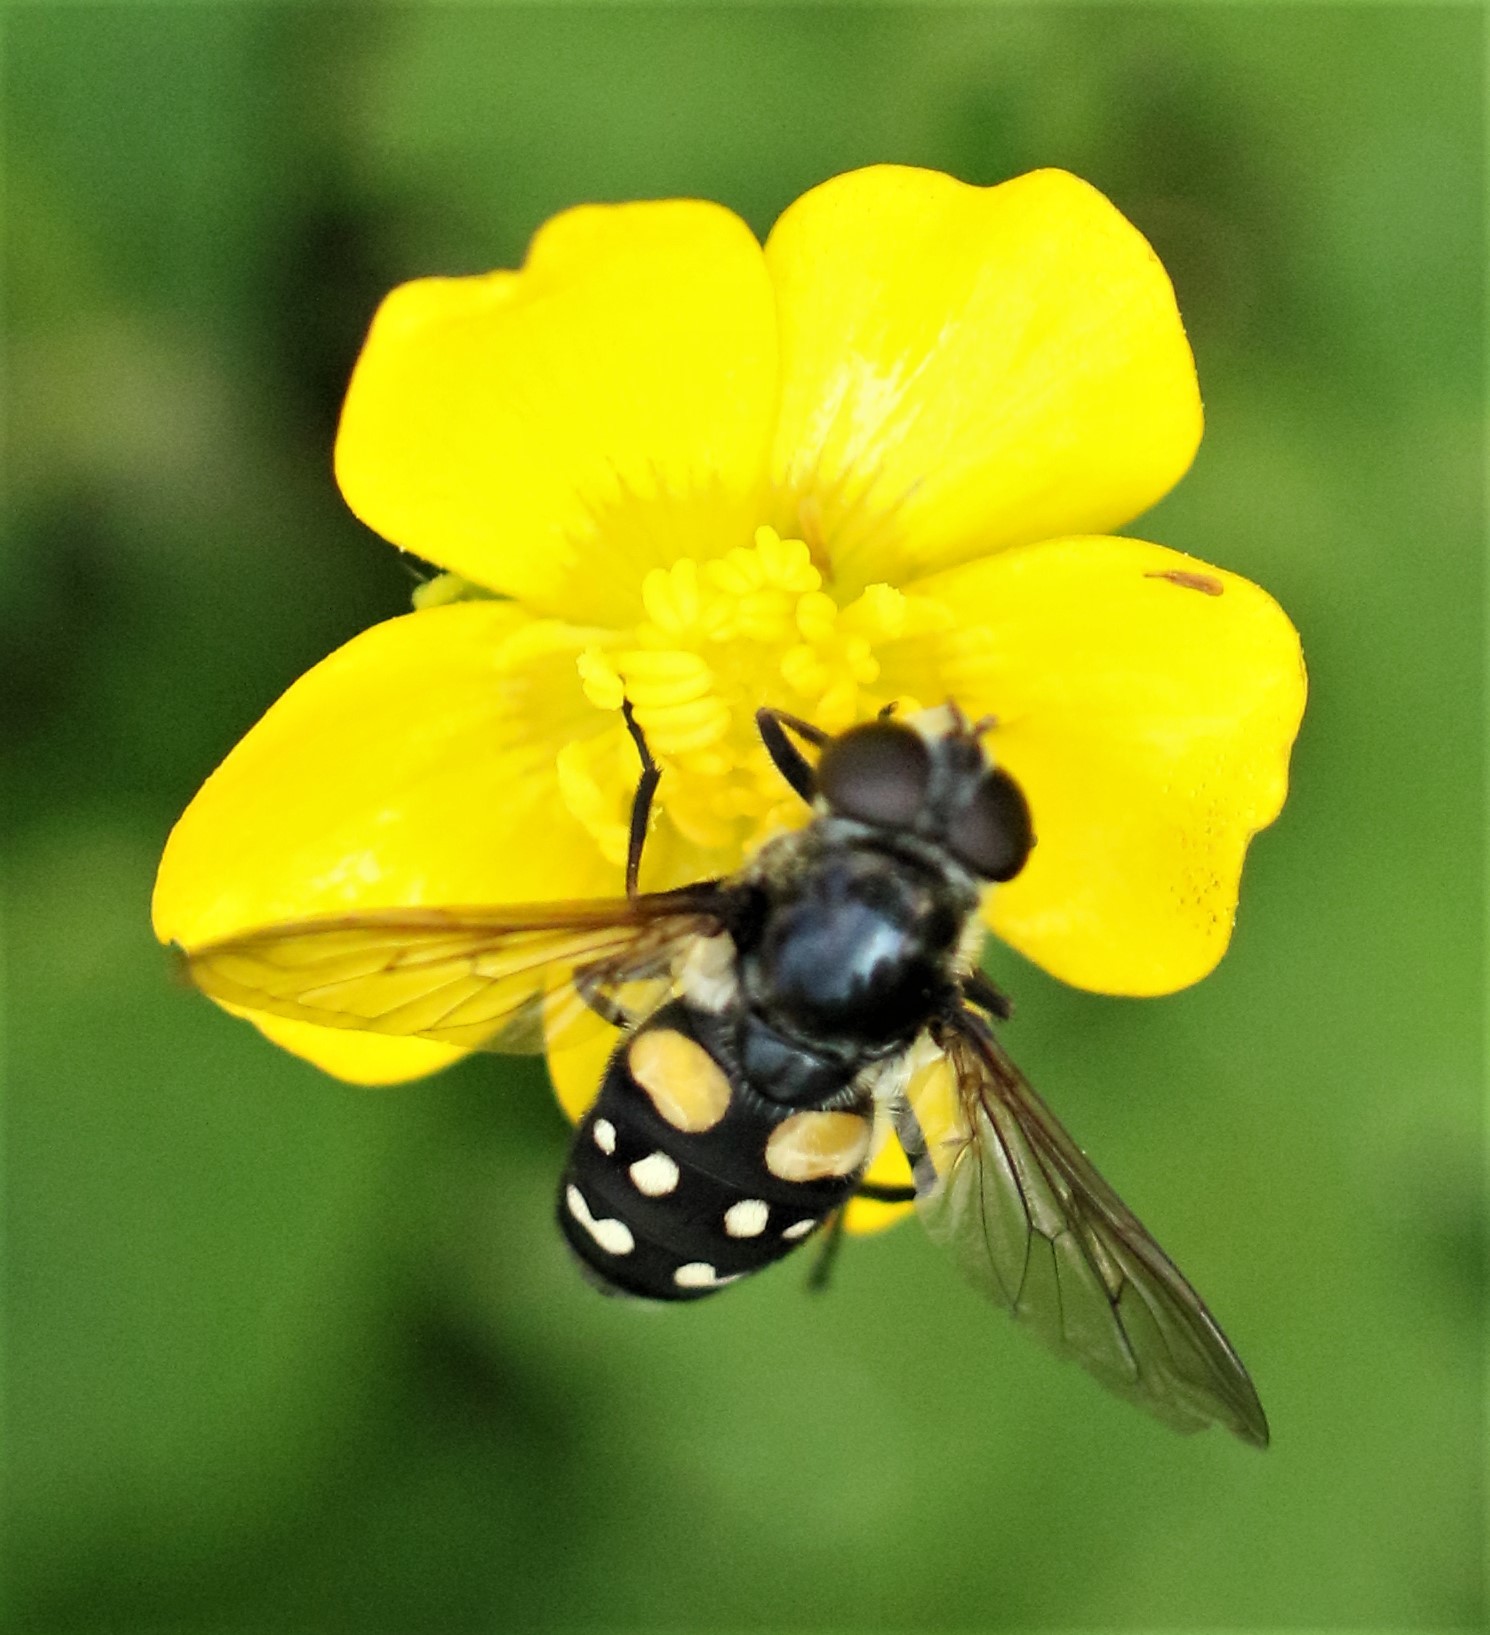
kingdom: Animalia
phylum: Arthropoda
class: Insecta
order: Diptera
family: Syrphidae
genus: Sericomyia
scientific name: Sericomyia lata
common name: White-spotted pond fly
